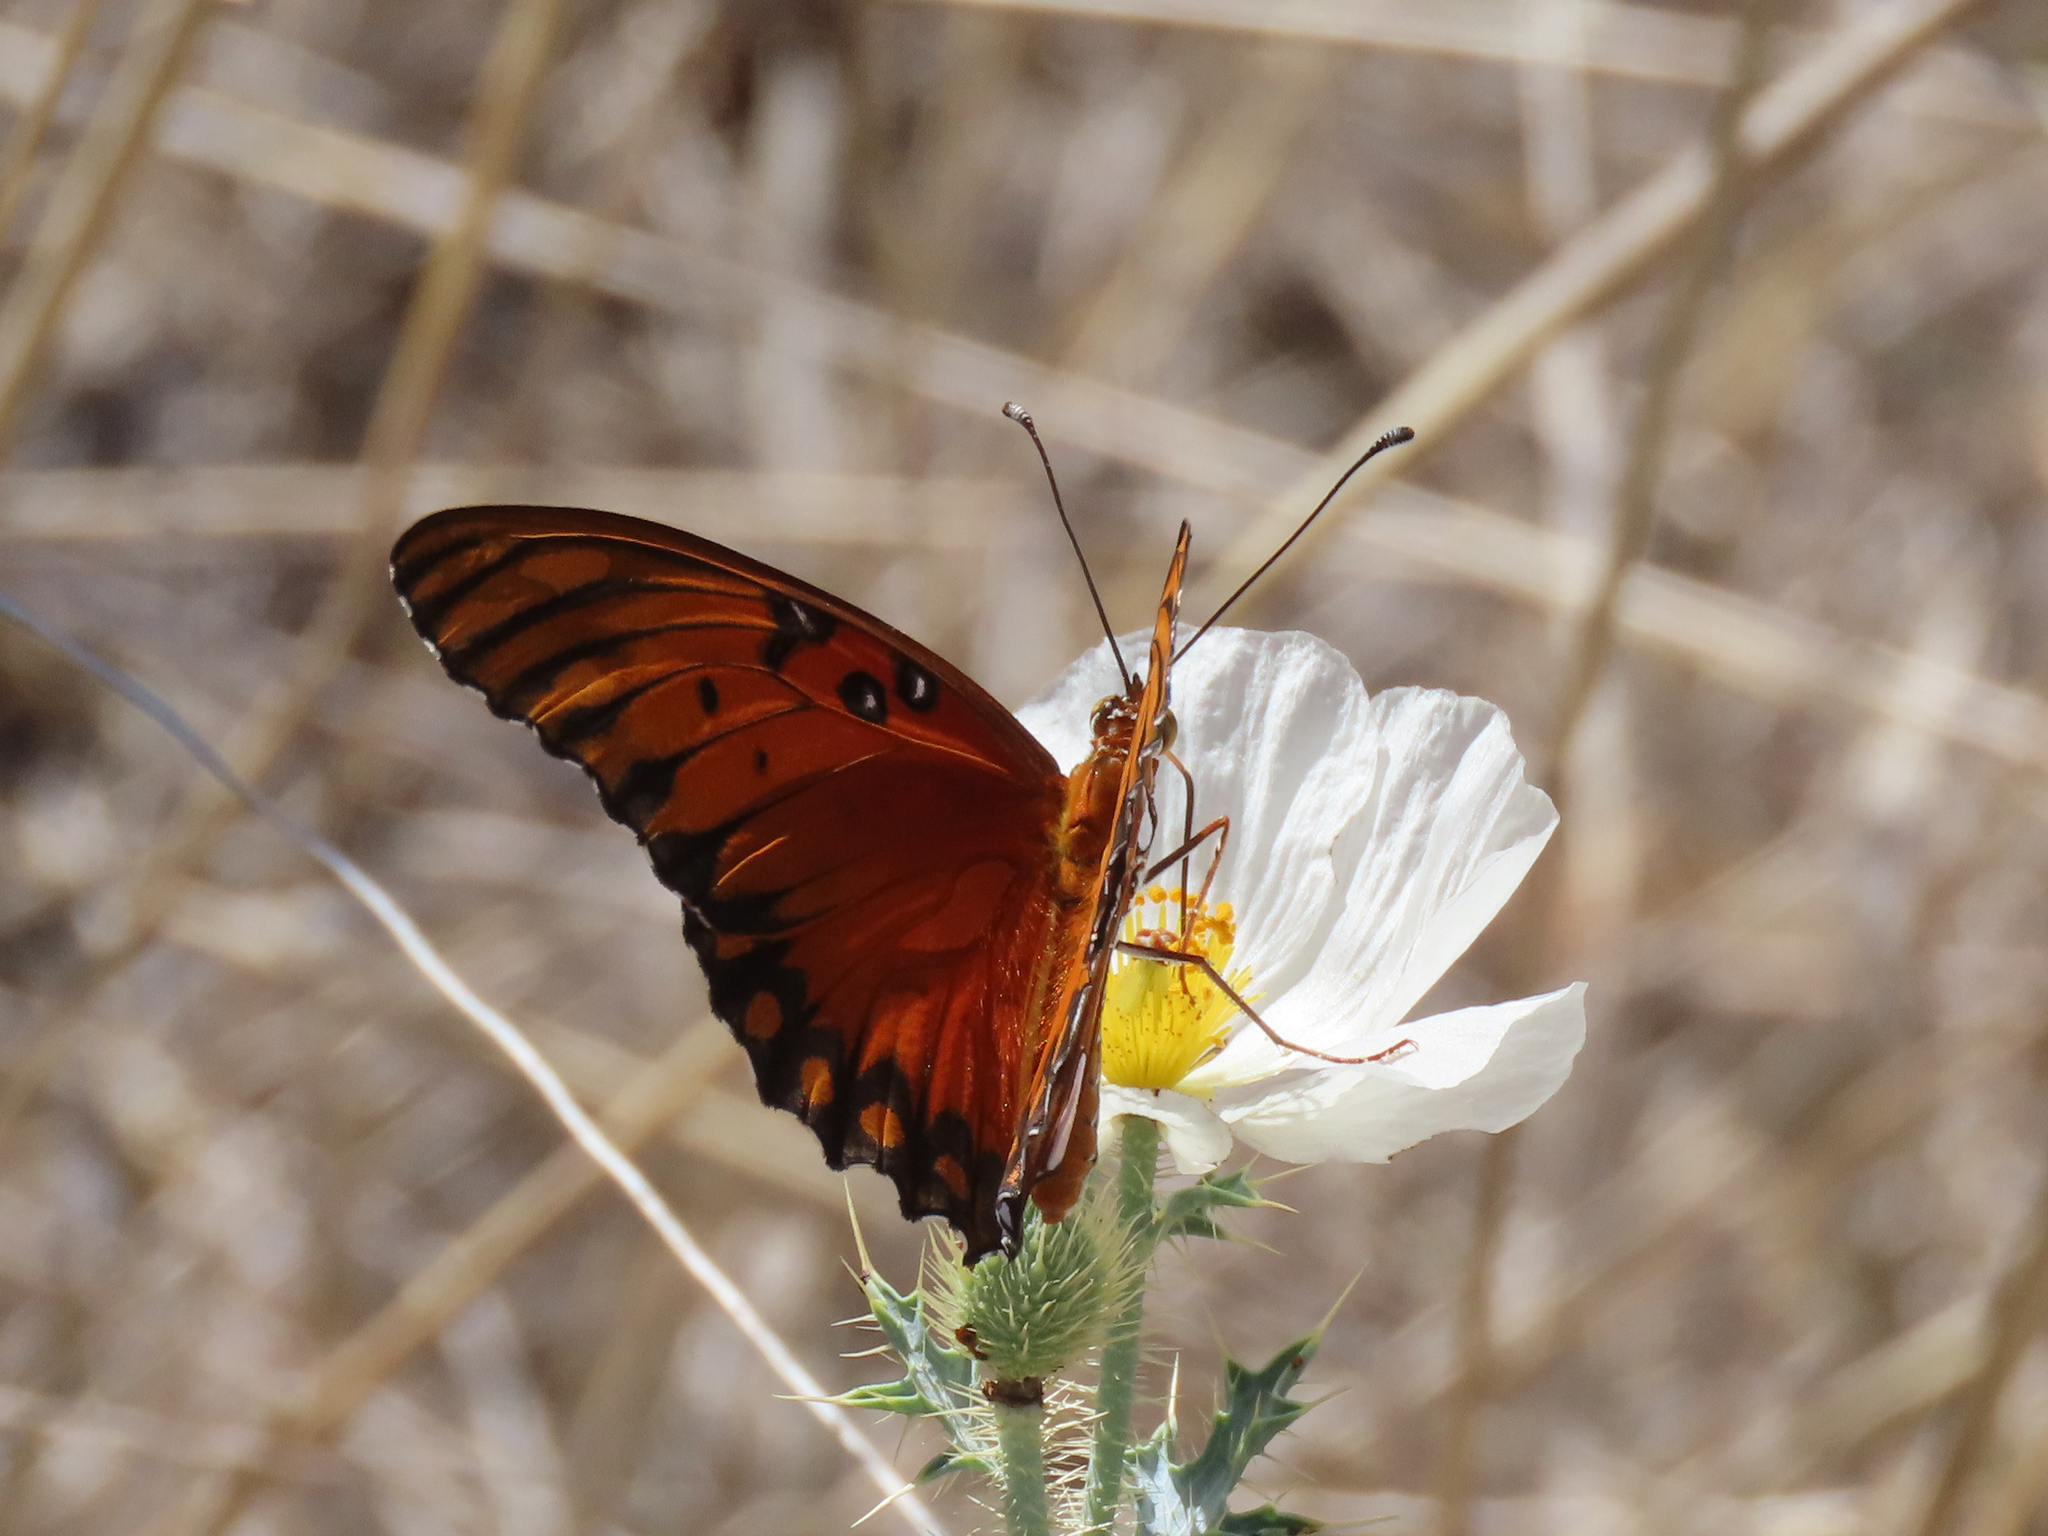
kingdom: Animalia
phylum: Arthropoda
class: Insecta
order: Lepidoptera
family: Nymphalidae
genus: Dione
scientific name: Dione vanillae
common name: Gulf fritillary
